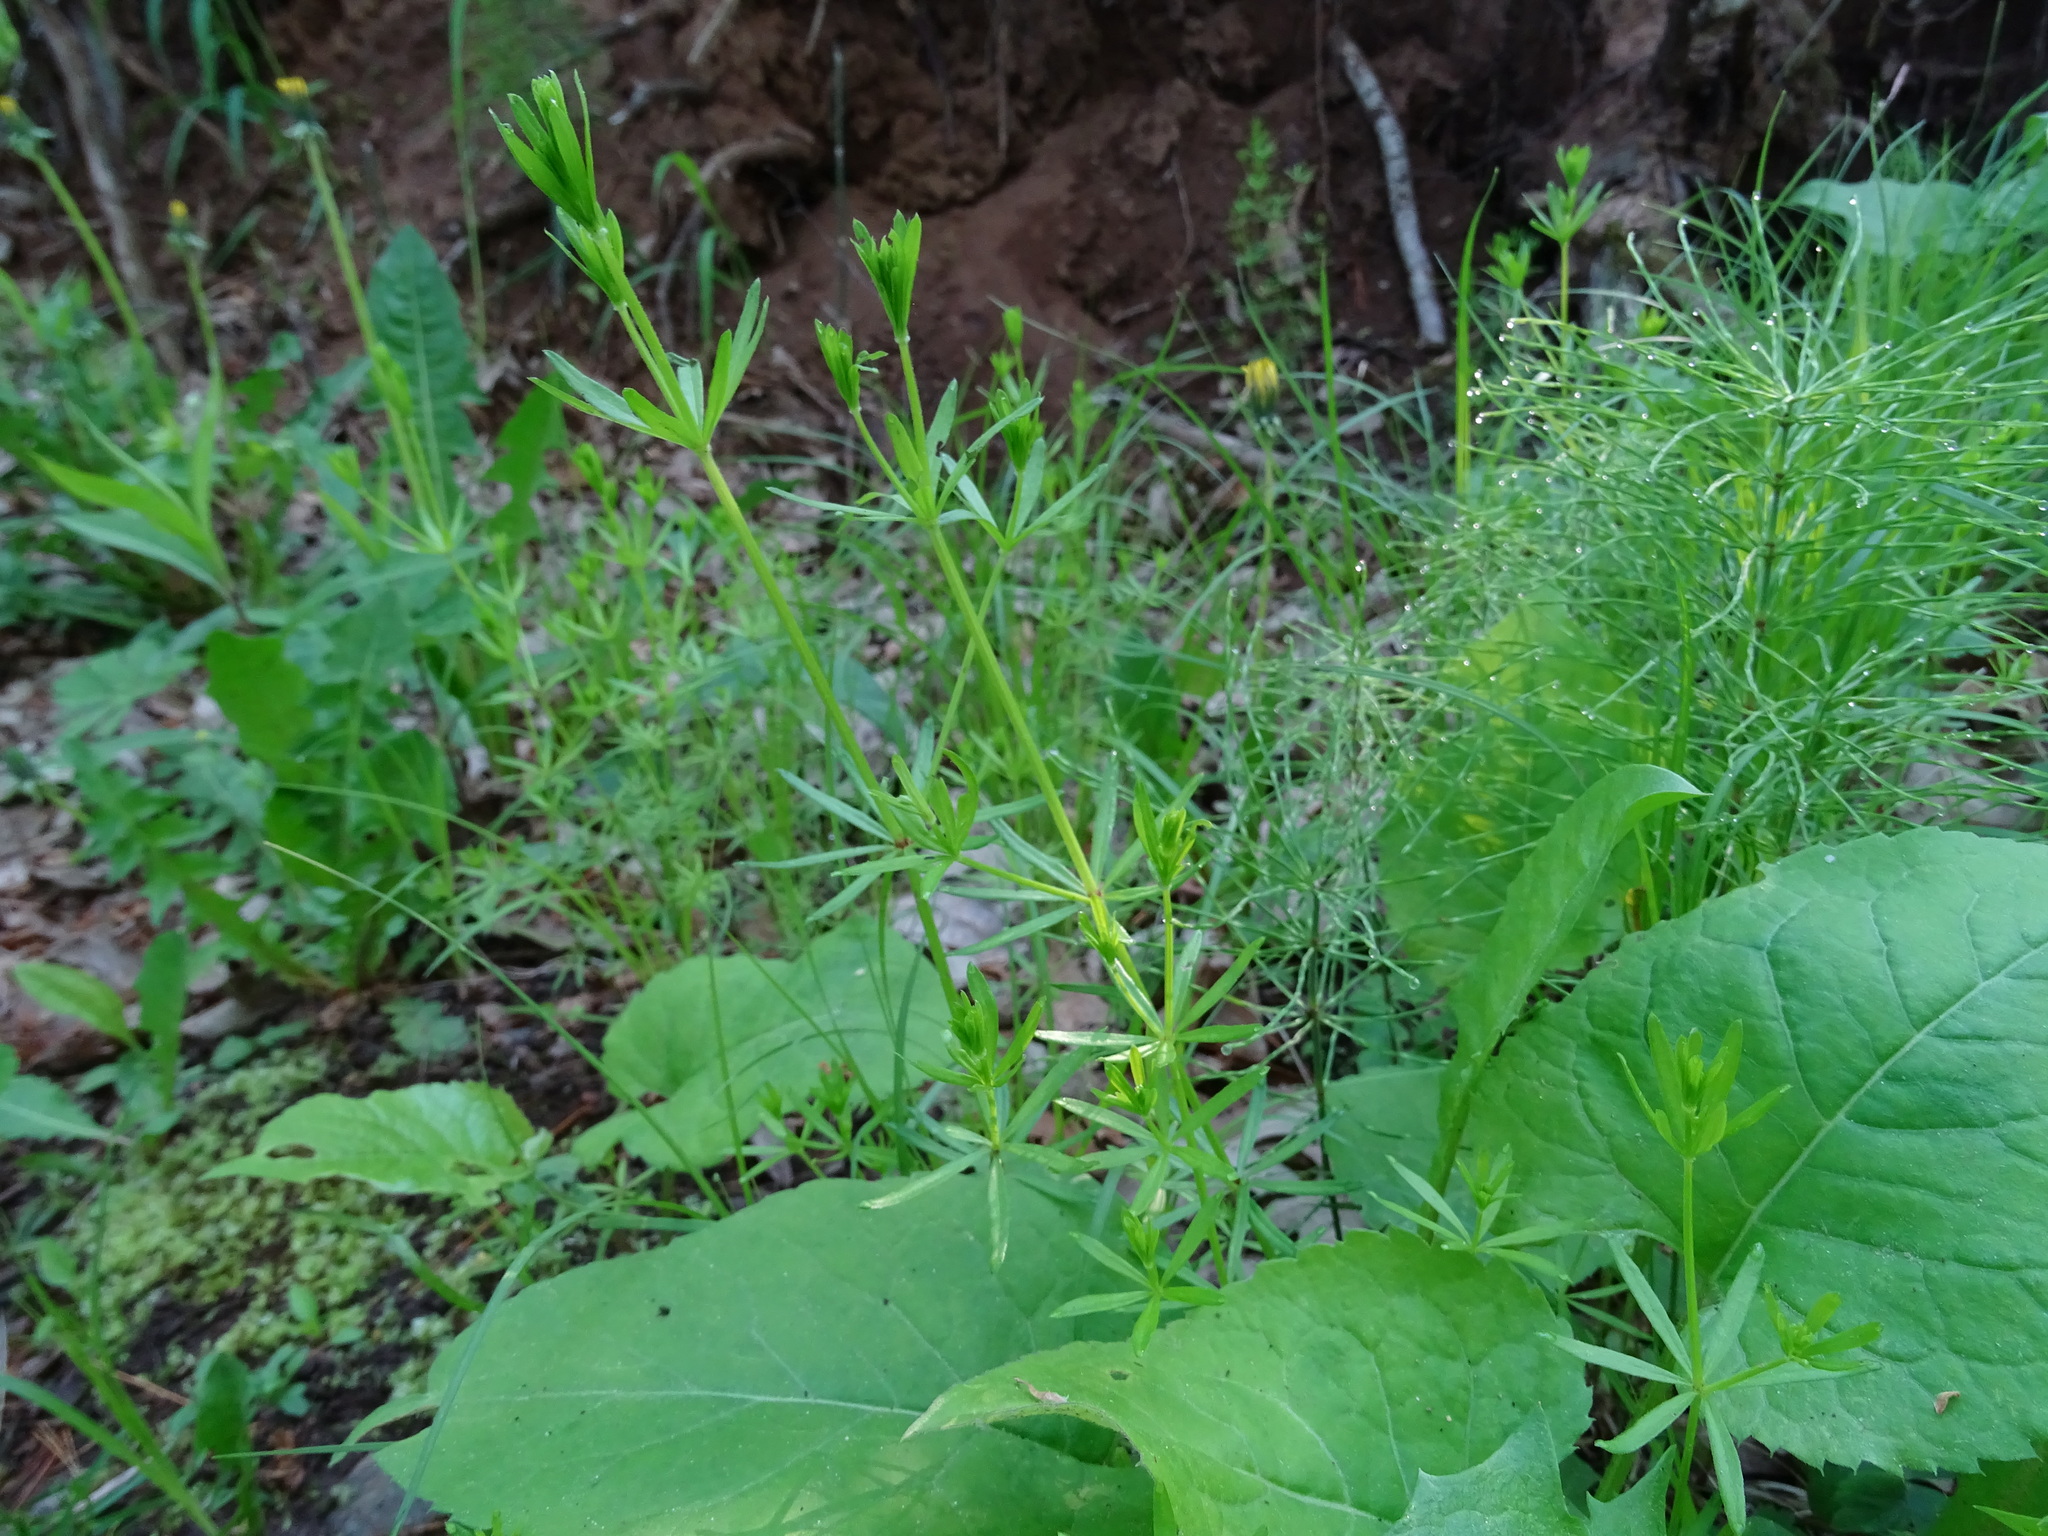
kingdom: Plantae
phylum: Tracheophyta
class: Magnoliopsida
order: Gentianales
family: Rubiaceae
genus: Galium
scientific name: Galium aparine
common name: Cleavers
